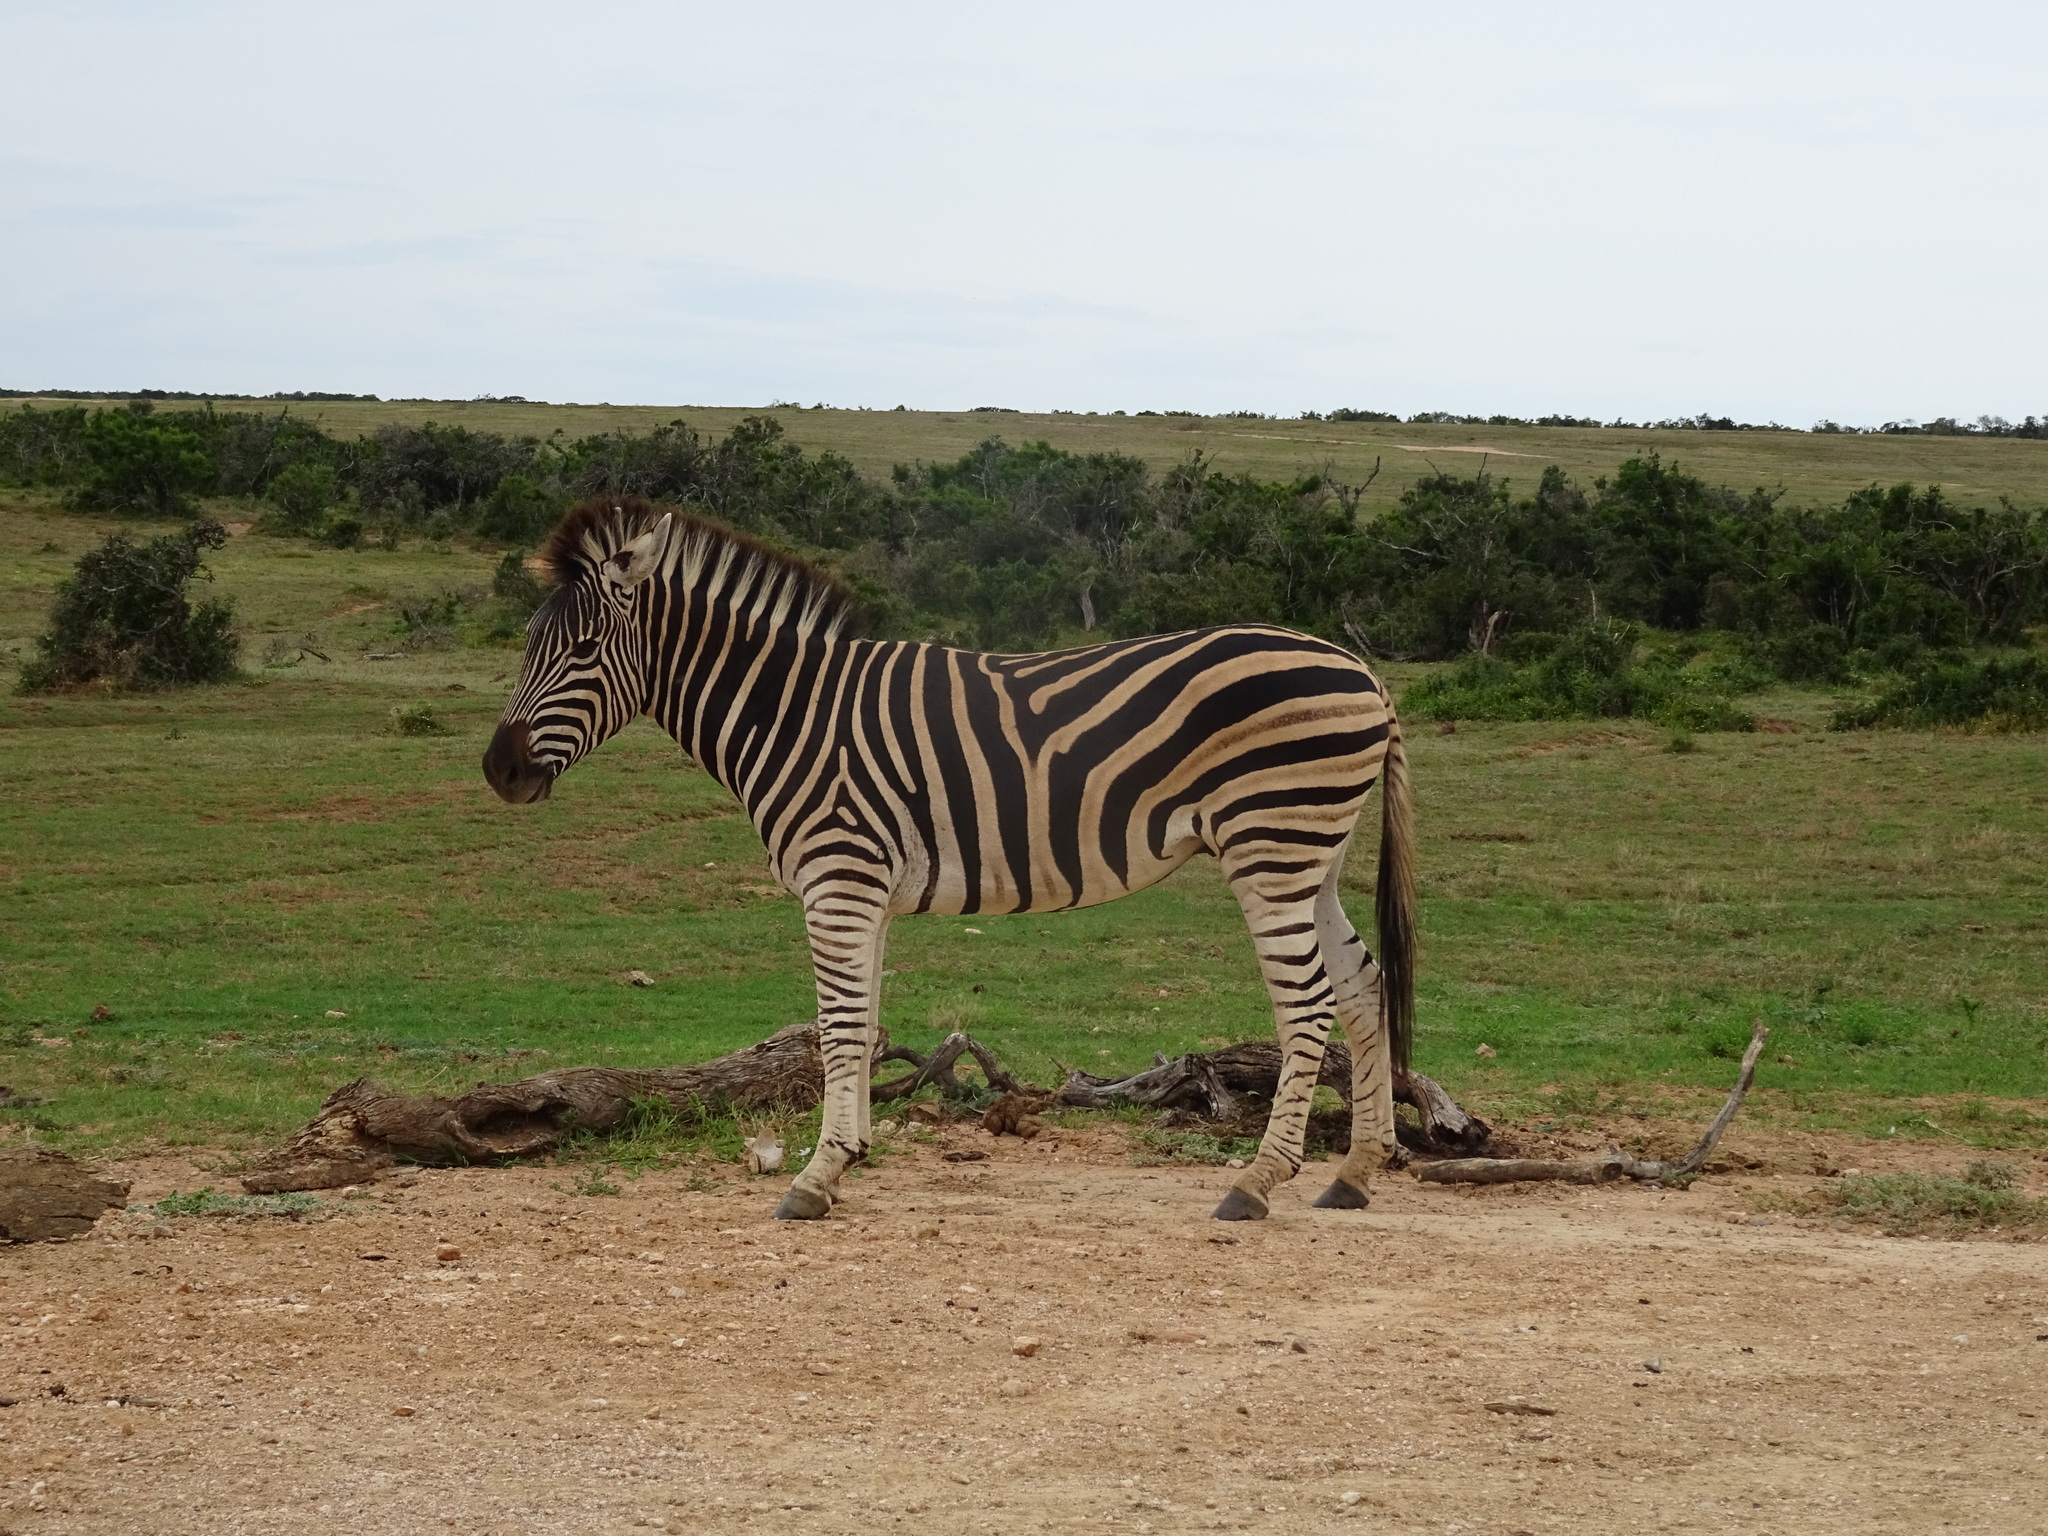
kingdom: Animalia
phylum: Chordata
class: Mammalia
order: Perissodactyla
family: Equidae
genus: Equus
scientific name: Equus quagga
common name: Plains zebra
